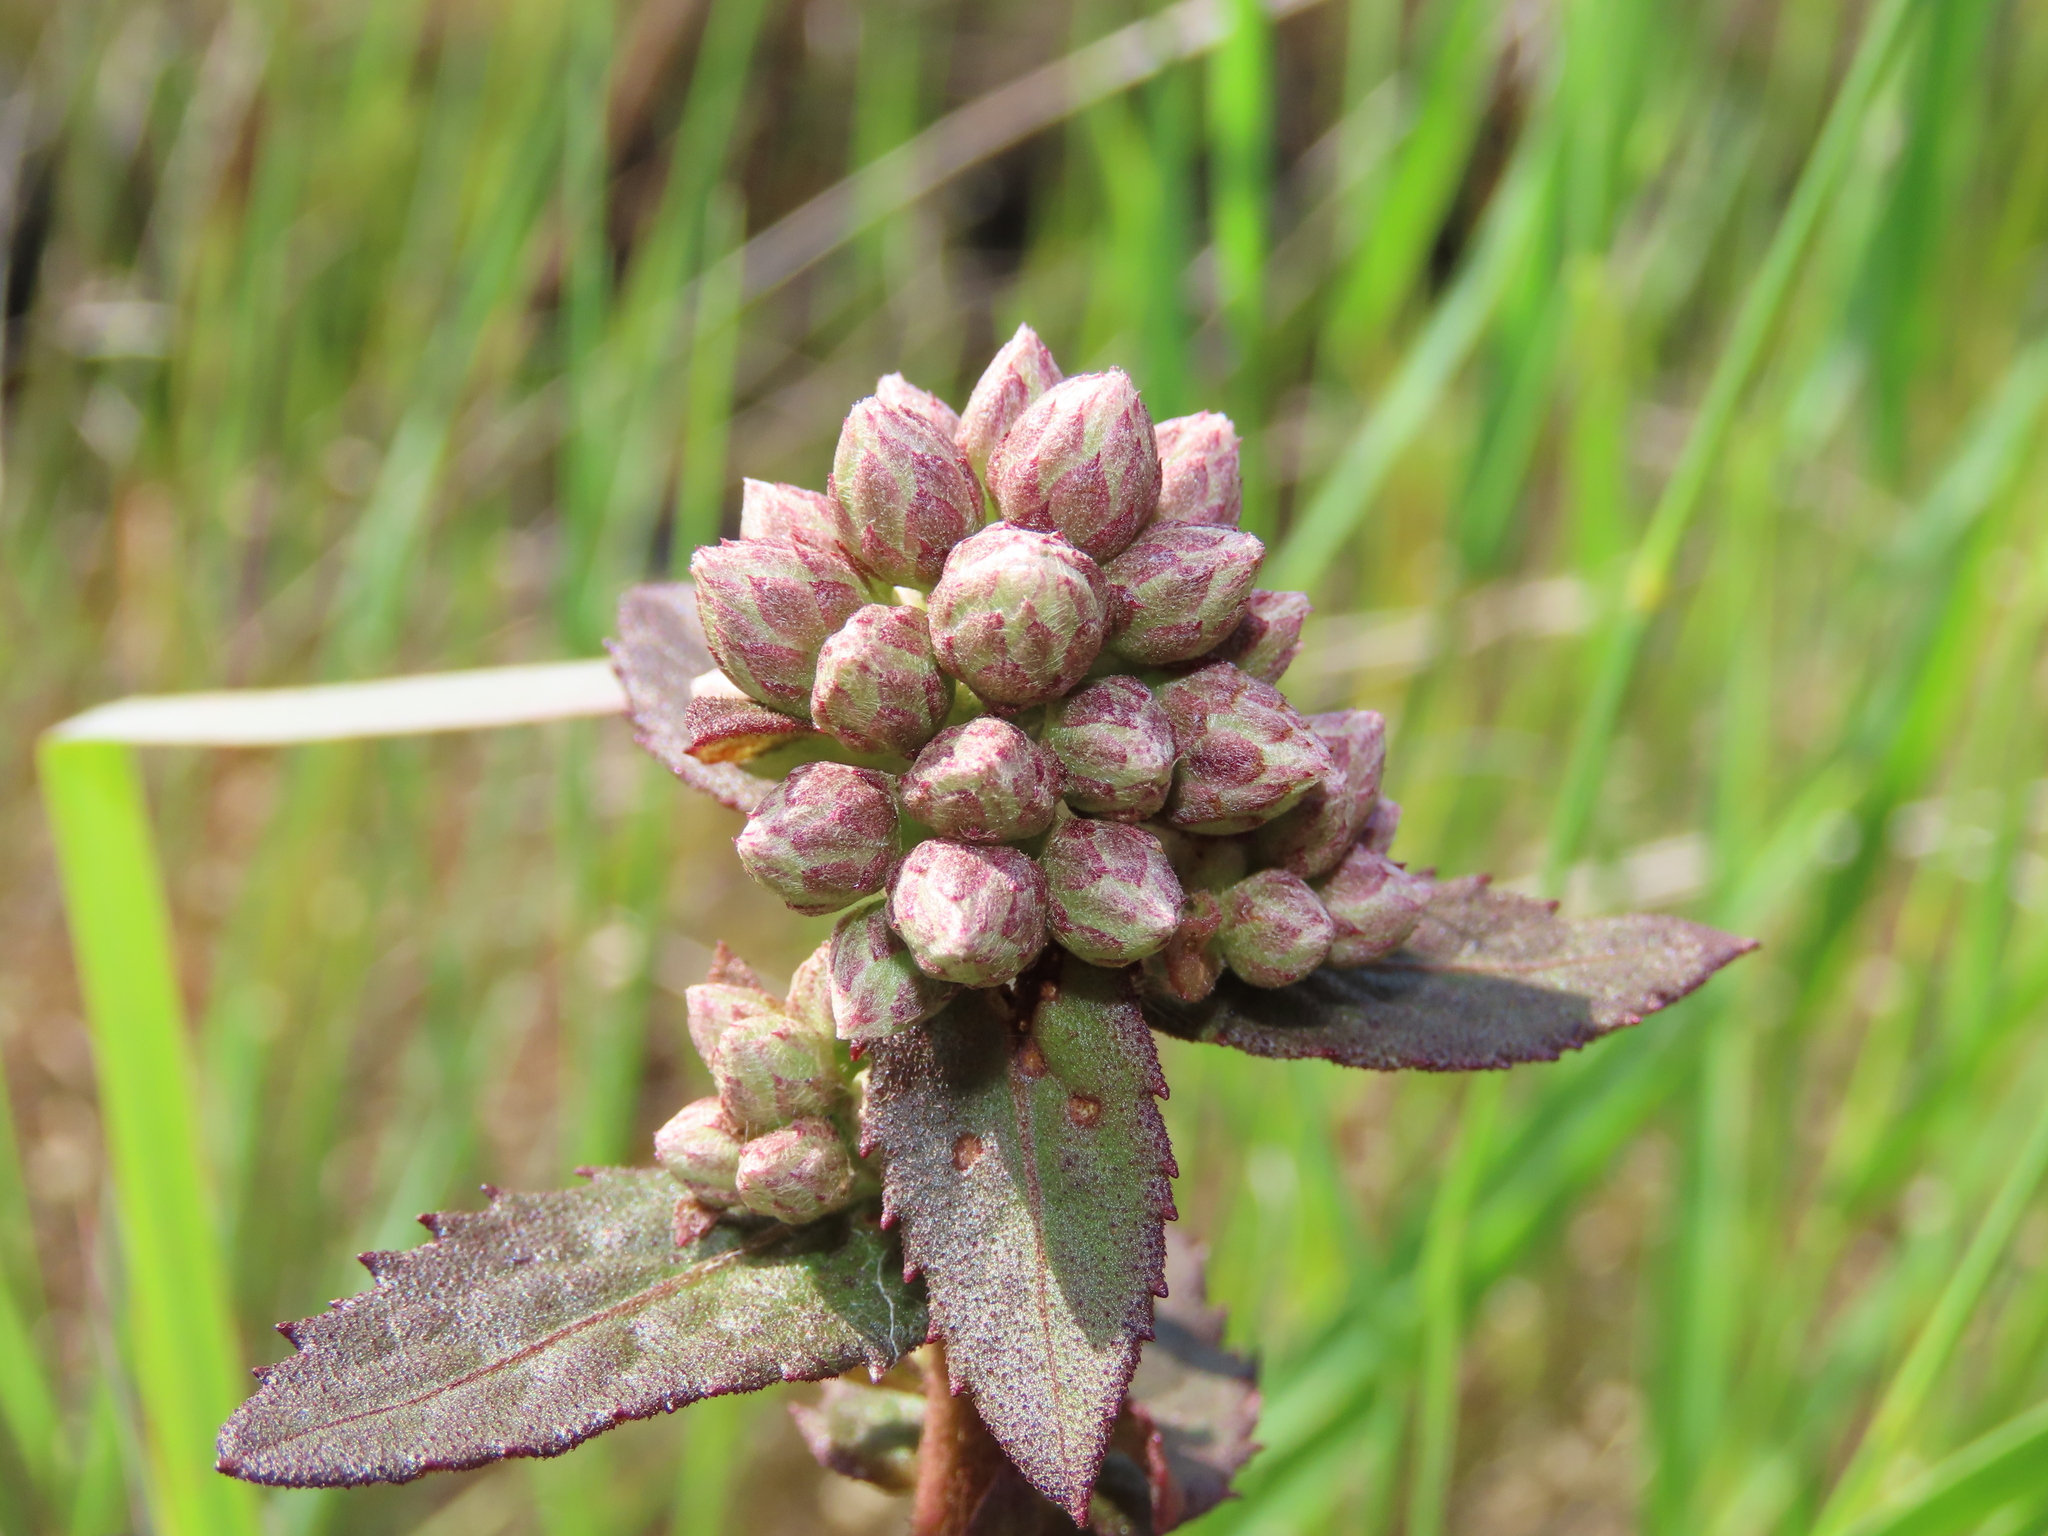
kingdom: Plantae
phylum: Tracheophyta
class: Magnoliopsida
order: Asterales
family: Asteraceae
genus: Pluchea
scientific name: Pluchea foetida
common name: Stinking camphorweed
